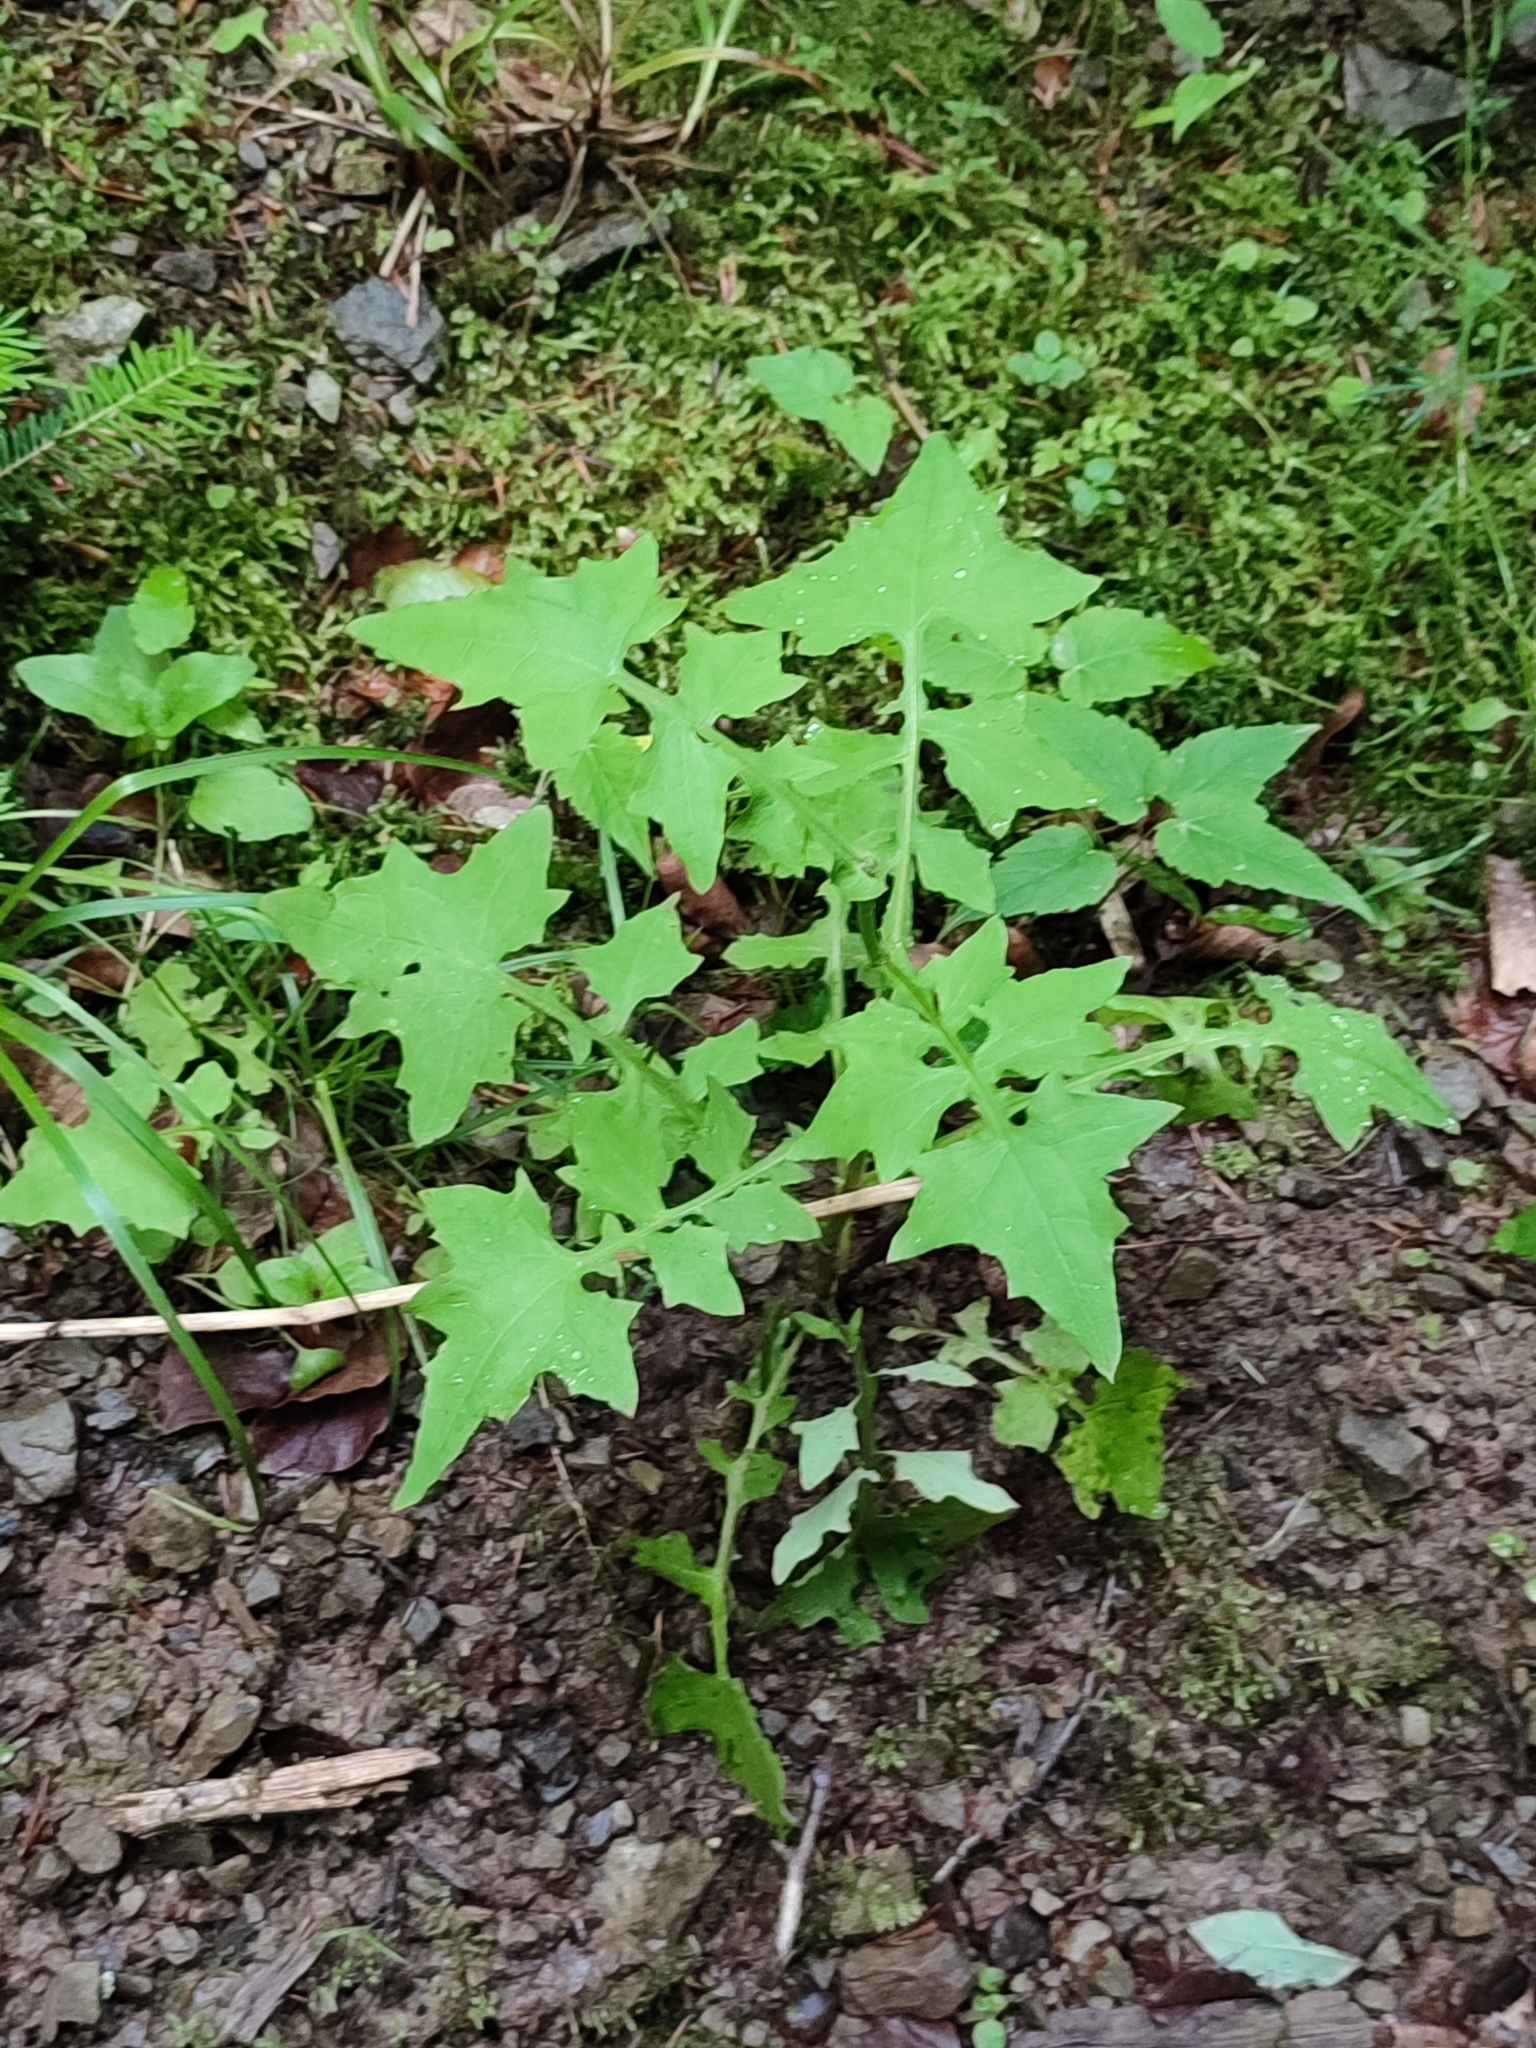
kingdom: Plantae
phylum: Tracheophyta
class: Magnoliopsida
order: Asterales
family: Asteraceae
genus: Mycelis
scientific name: Mycelis muralis
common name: Wall lettuce
